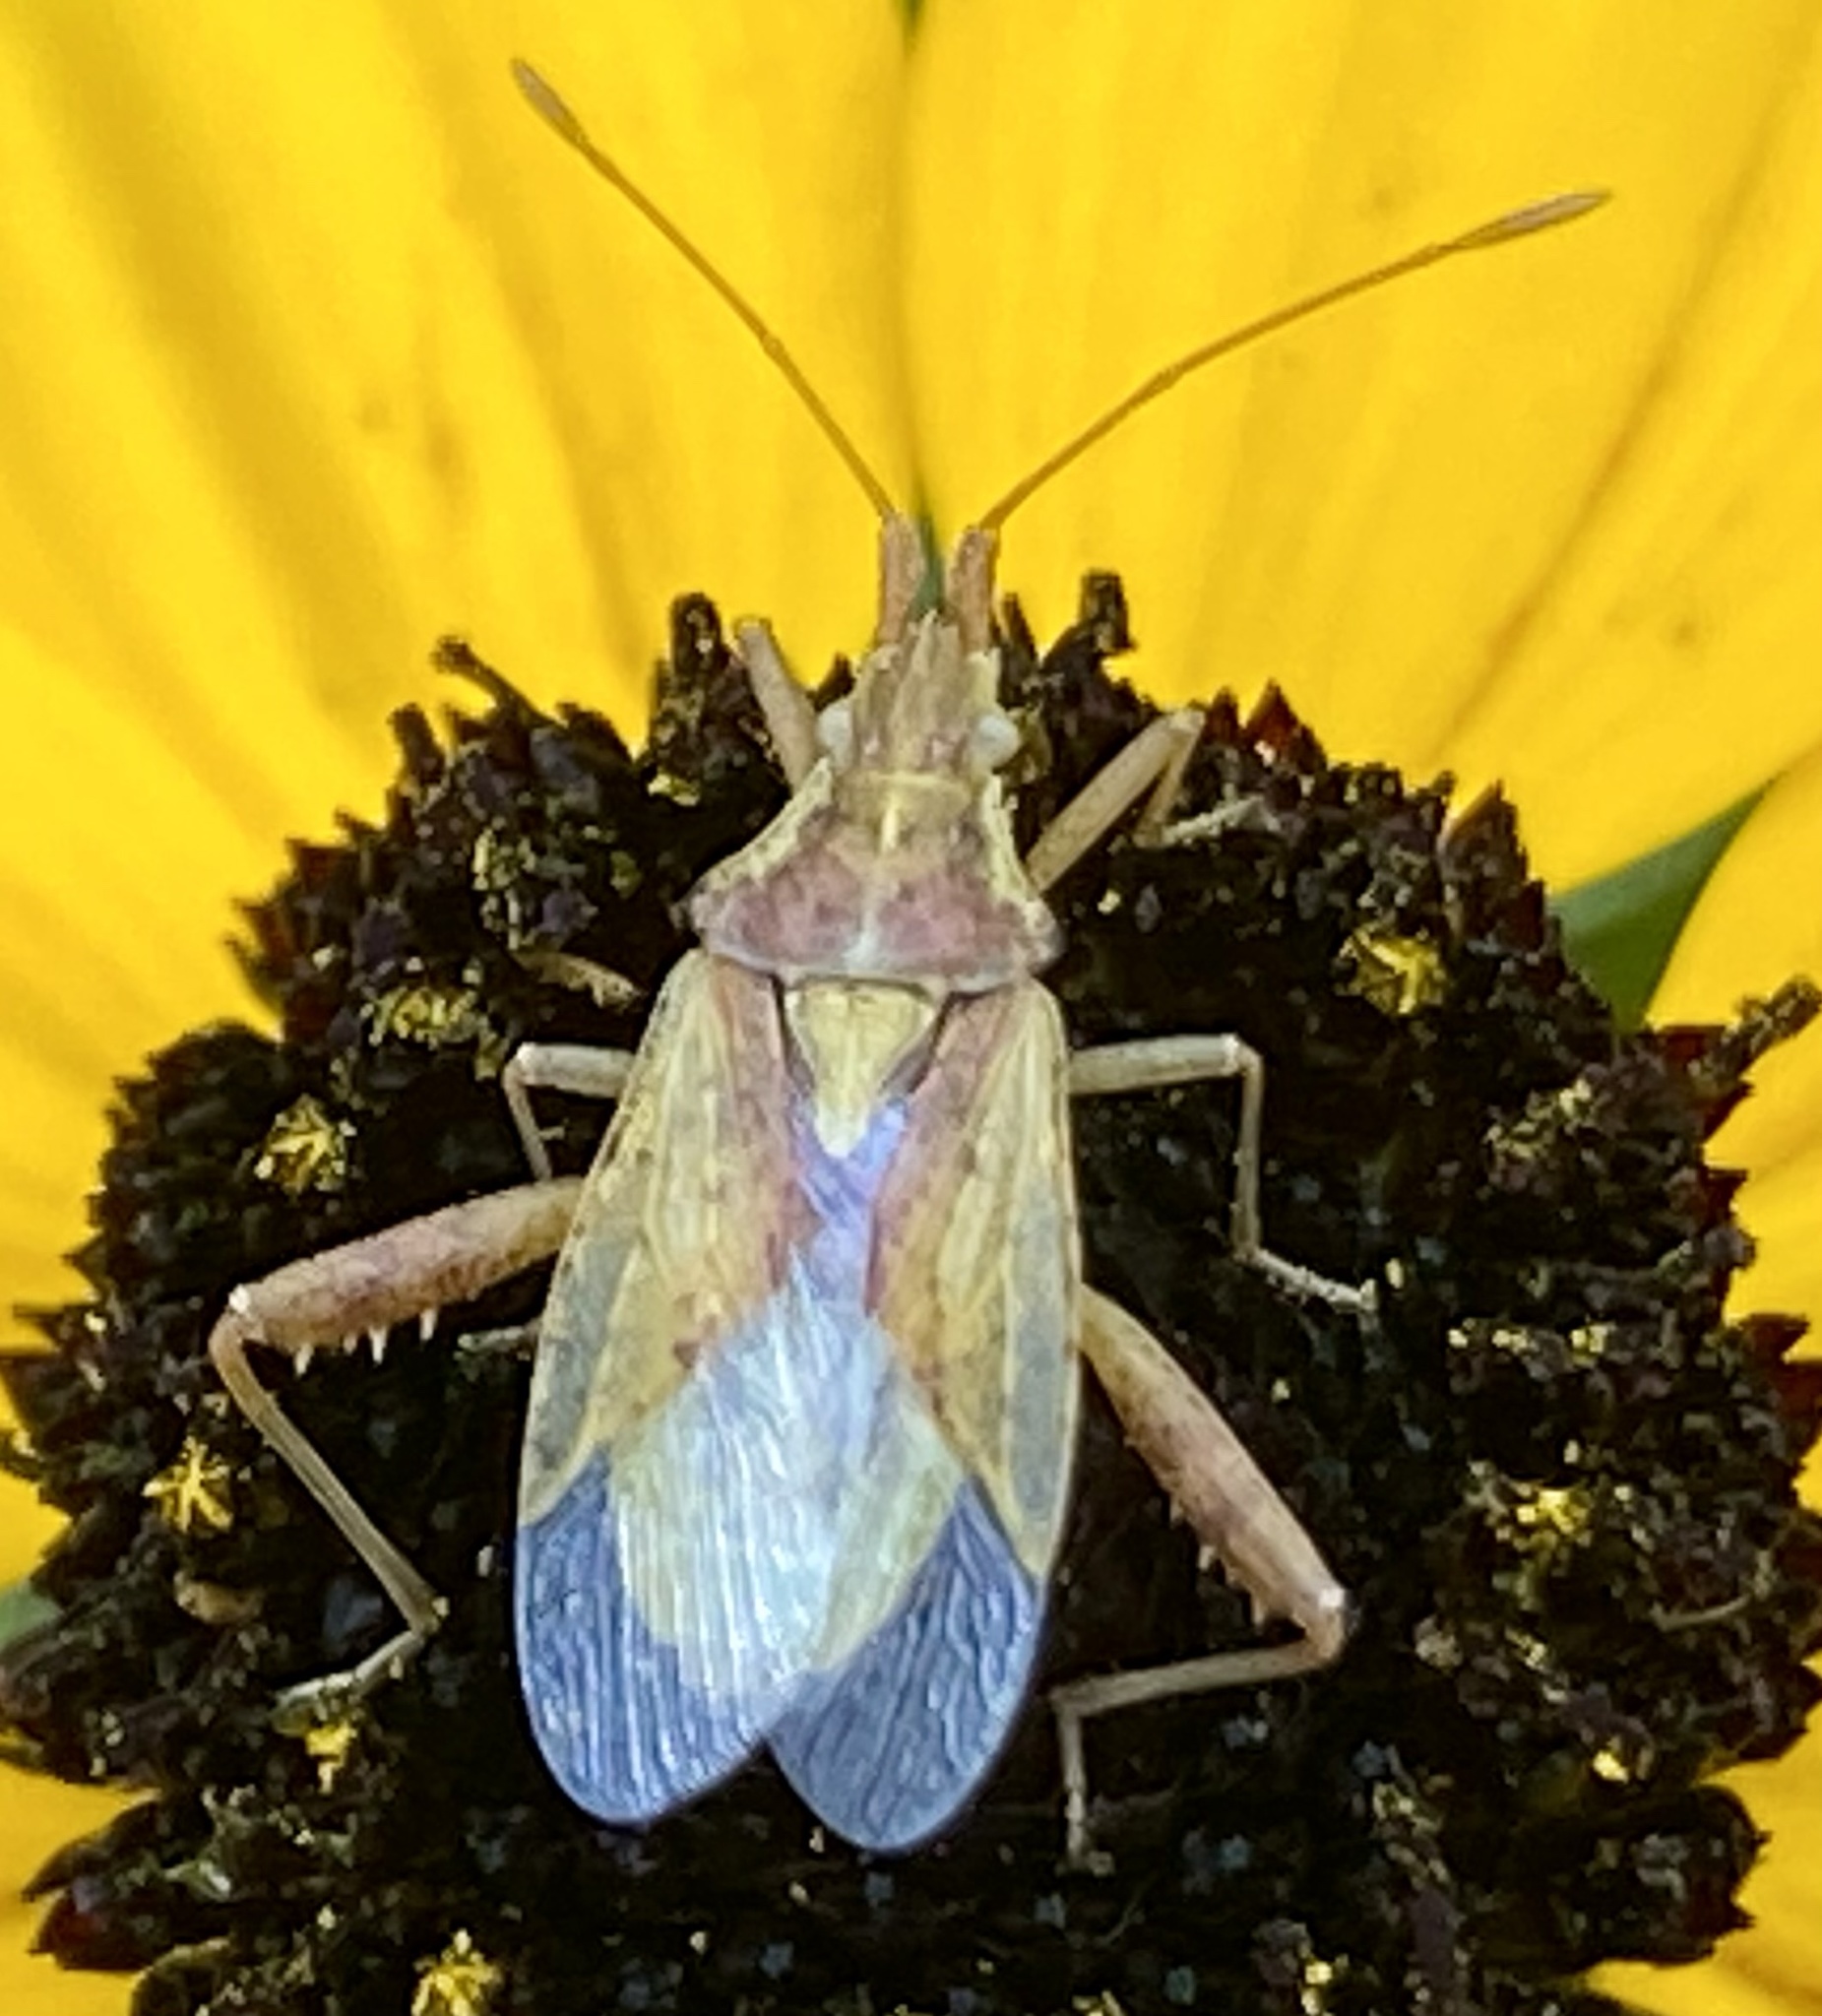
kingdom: Animalia
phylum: Arthropoda
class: Insecta
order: Hemiptera
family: Rhopalidae
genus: Harmostes
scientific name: Harmostes reflexulus
